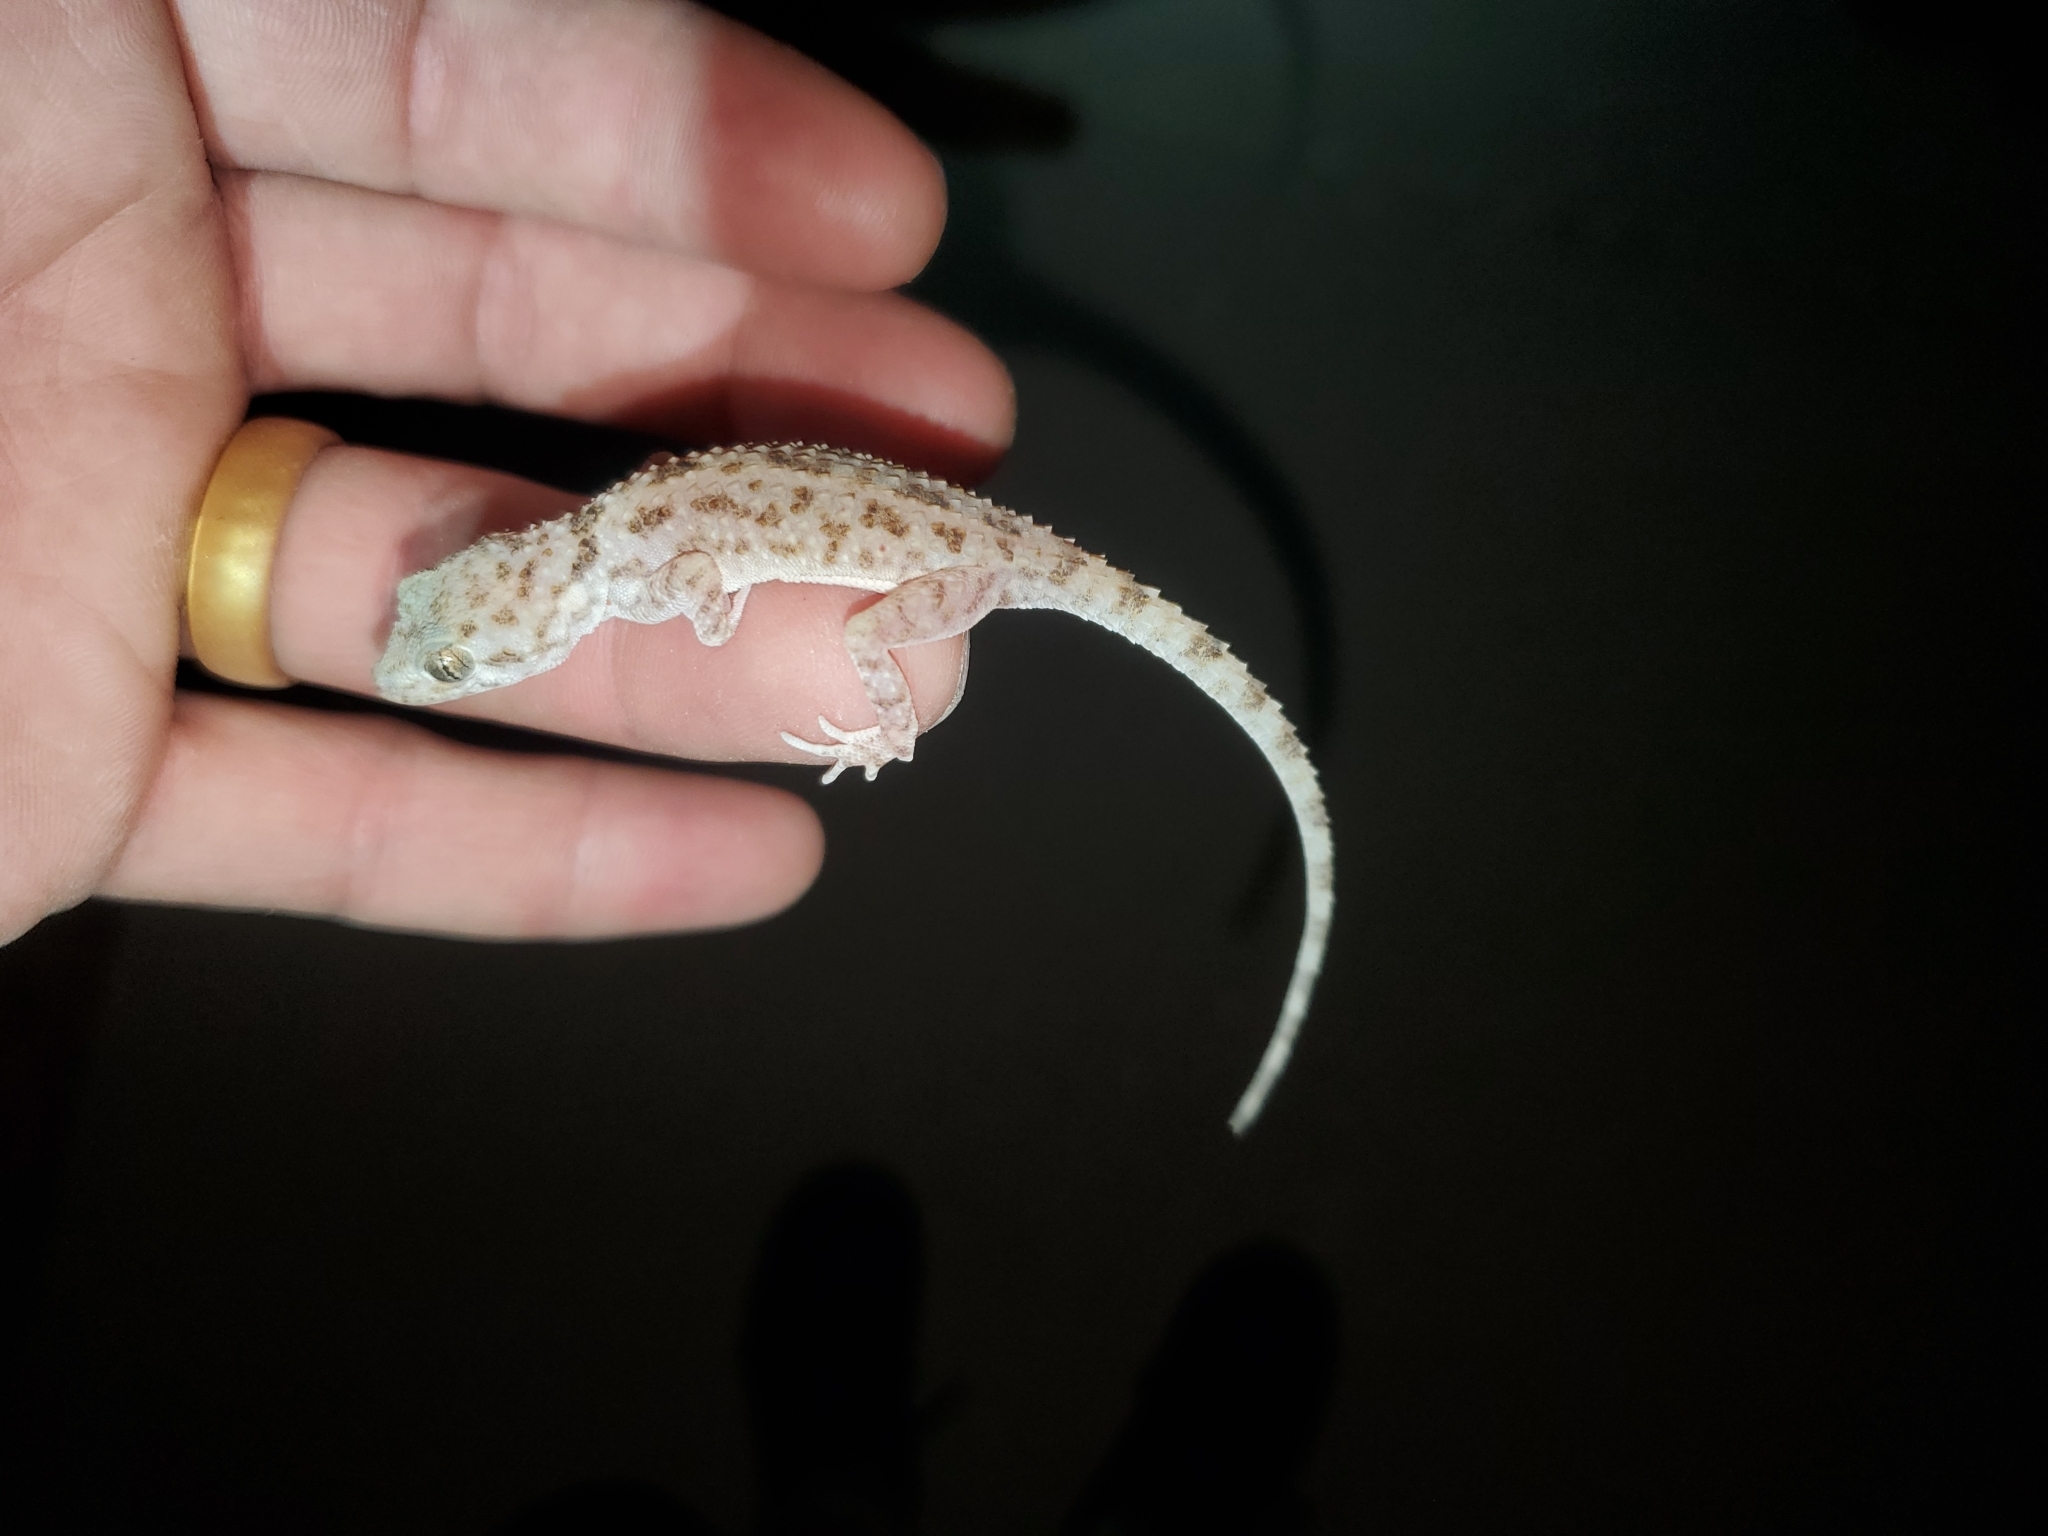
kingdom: Animalia
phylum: Chordata
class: Squamata
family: Gekkonidae
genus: Cyrtopodion
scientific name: Cyrtopodion scabrum
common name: Rough-tailed gecko
